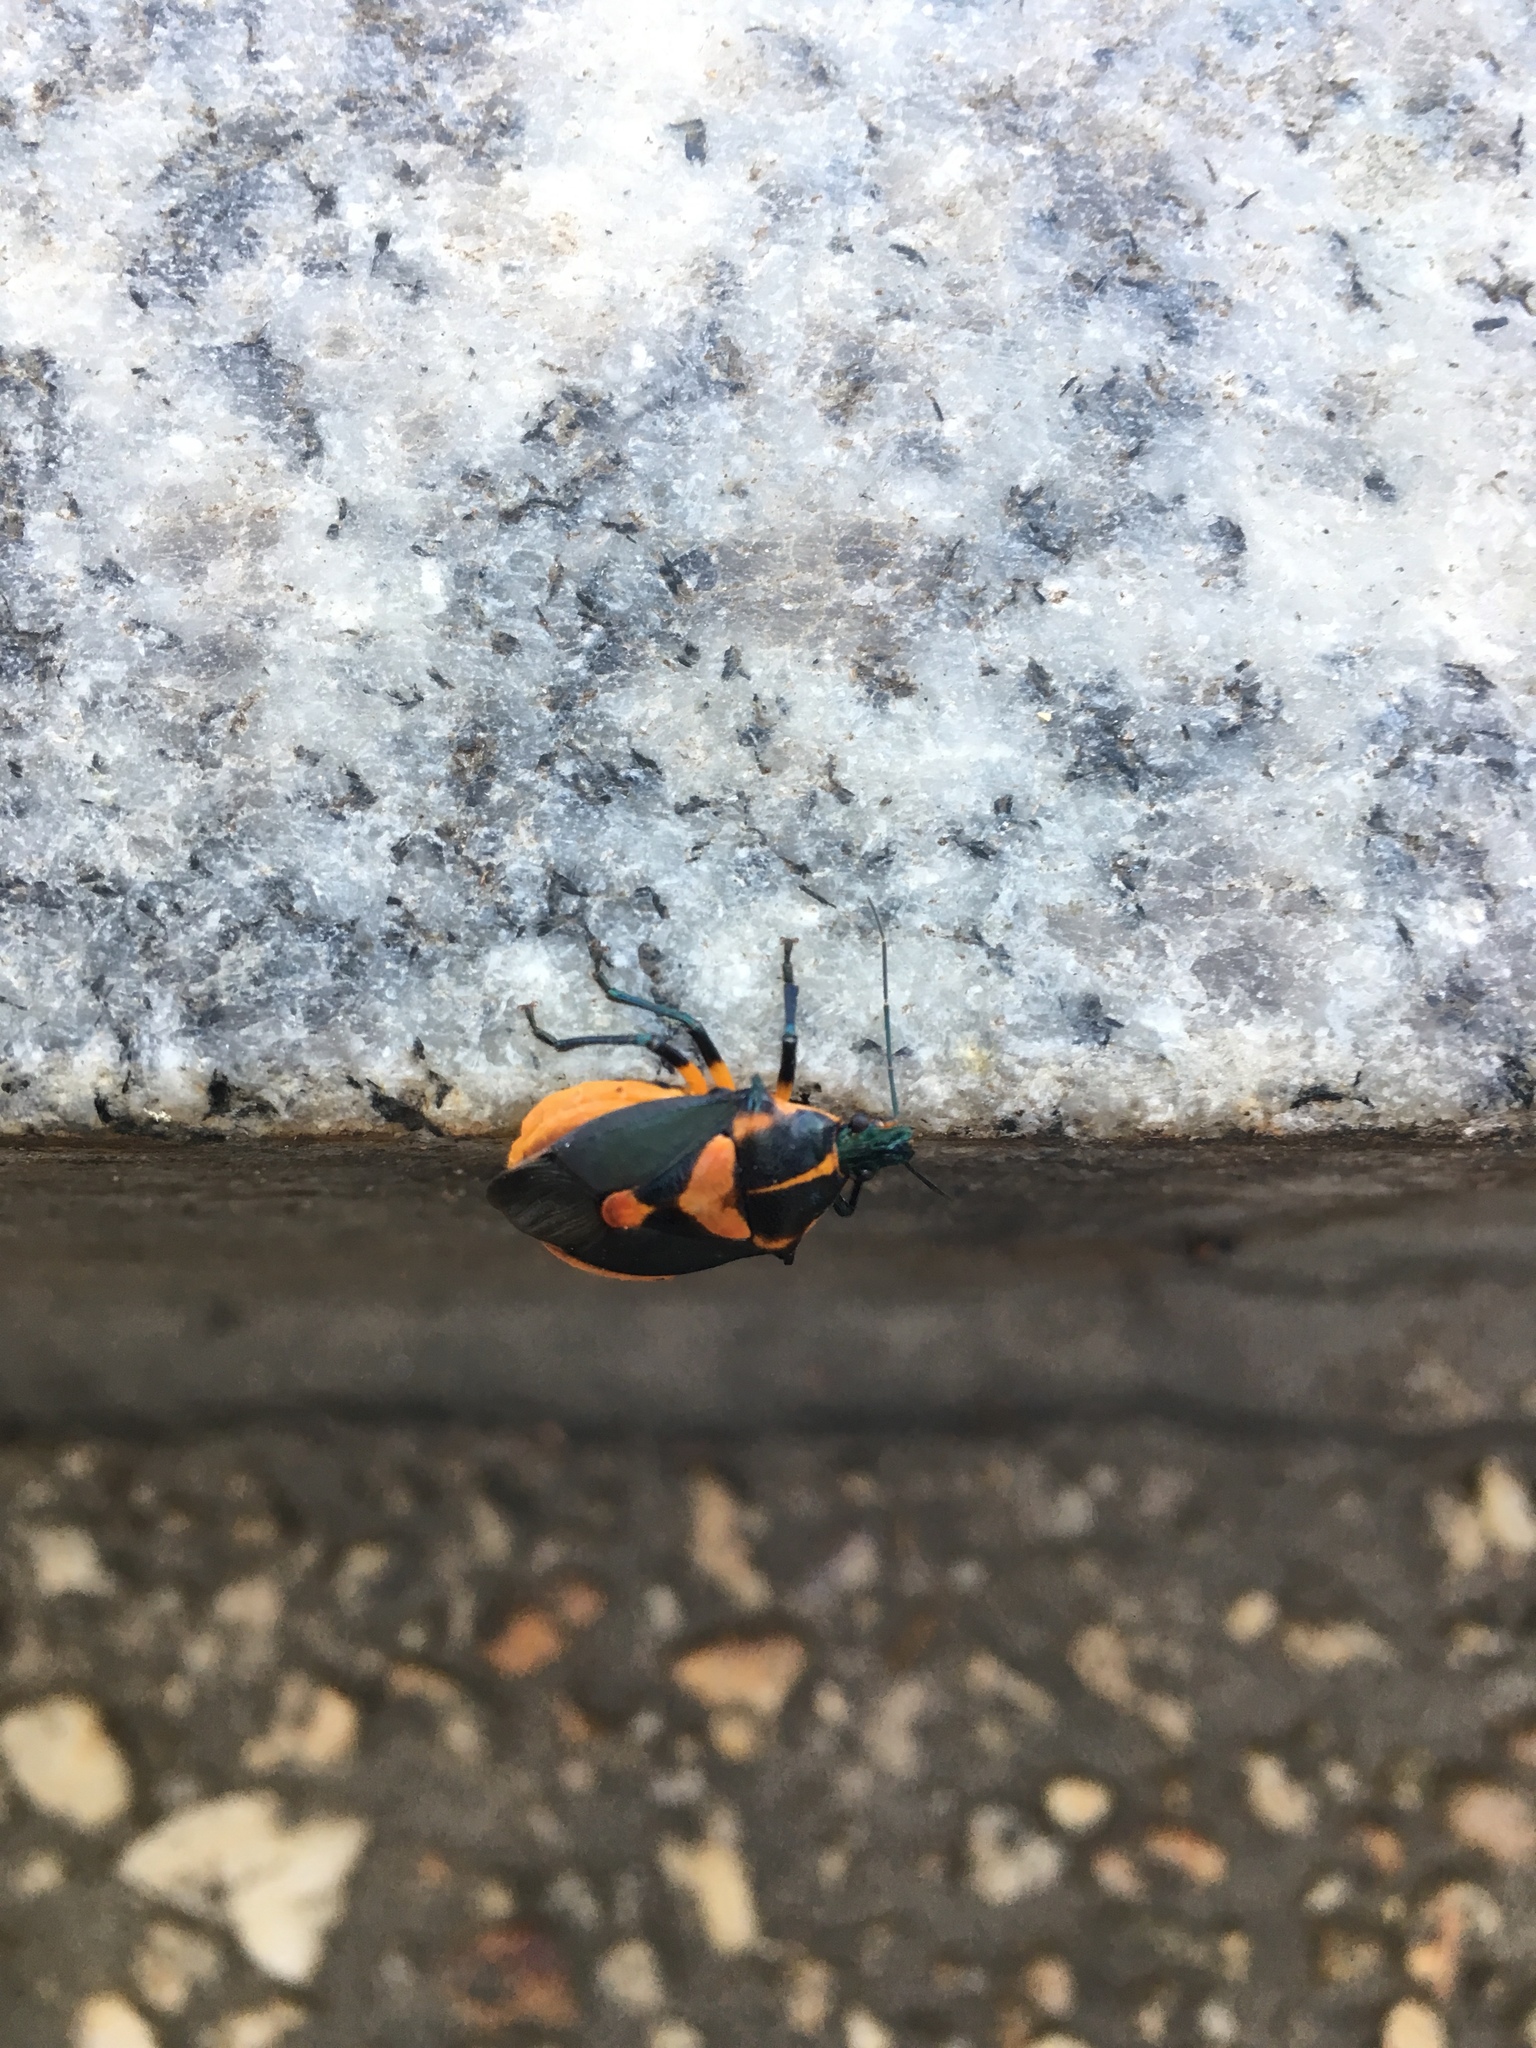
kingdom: Animalia
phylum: Arthropoda
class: Insecta
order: Hemiptera
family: Pentatomidae
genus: Euthyrhynchus
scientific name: Euthyrhynchus floridanus
